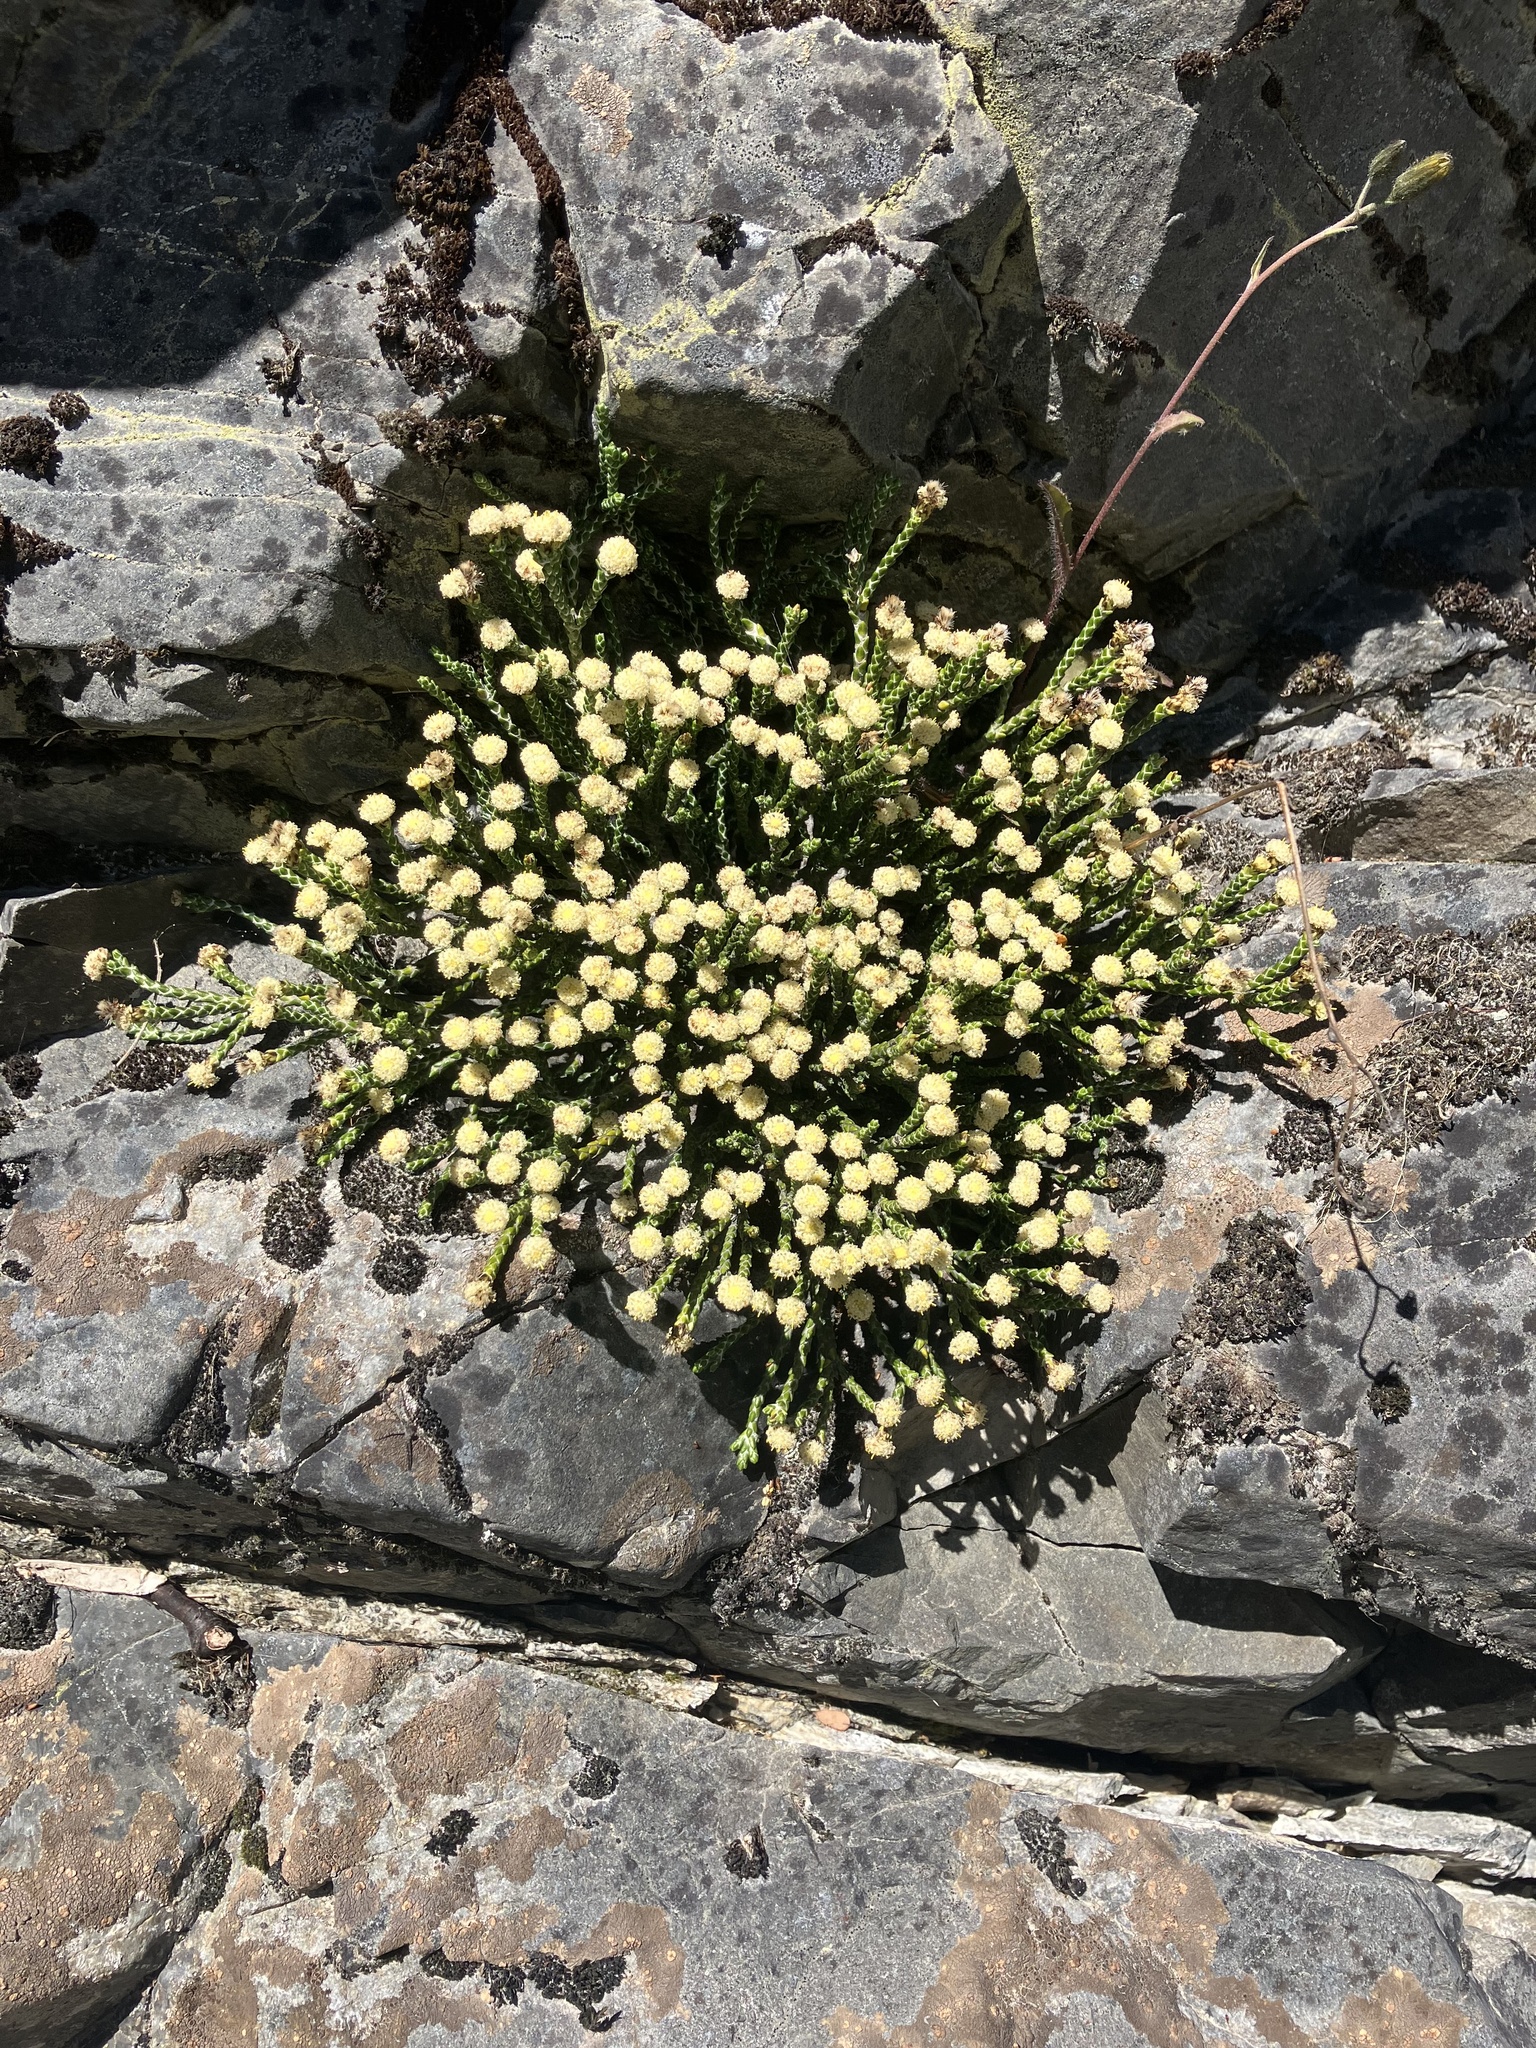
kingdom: Plantae
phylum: Tracheophyta
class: Magnoliopsida
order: Asterales
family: Asteraceae
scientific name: Asteraceae
